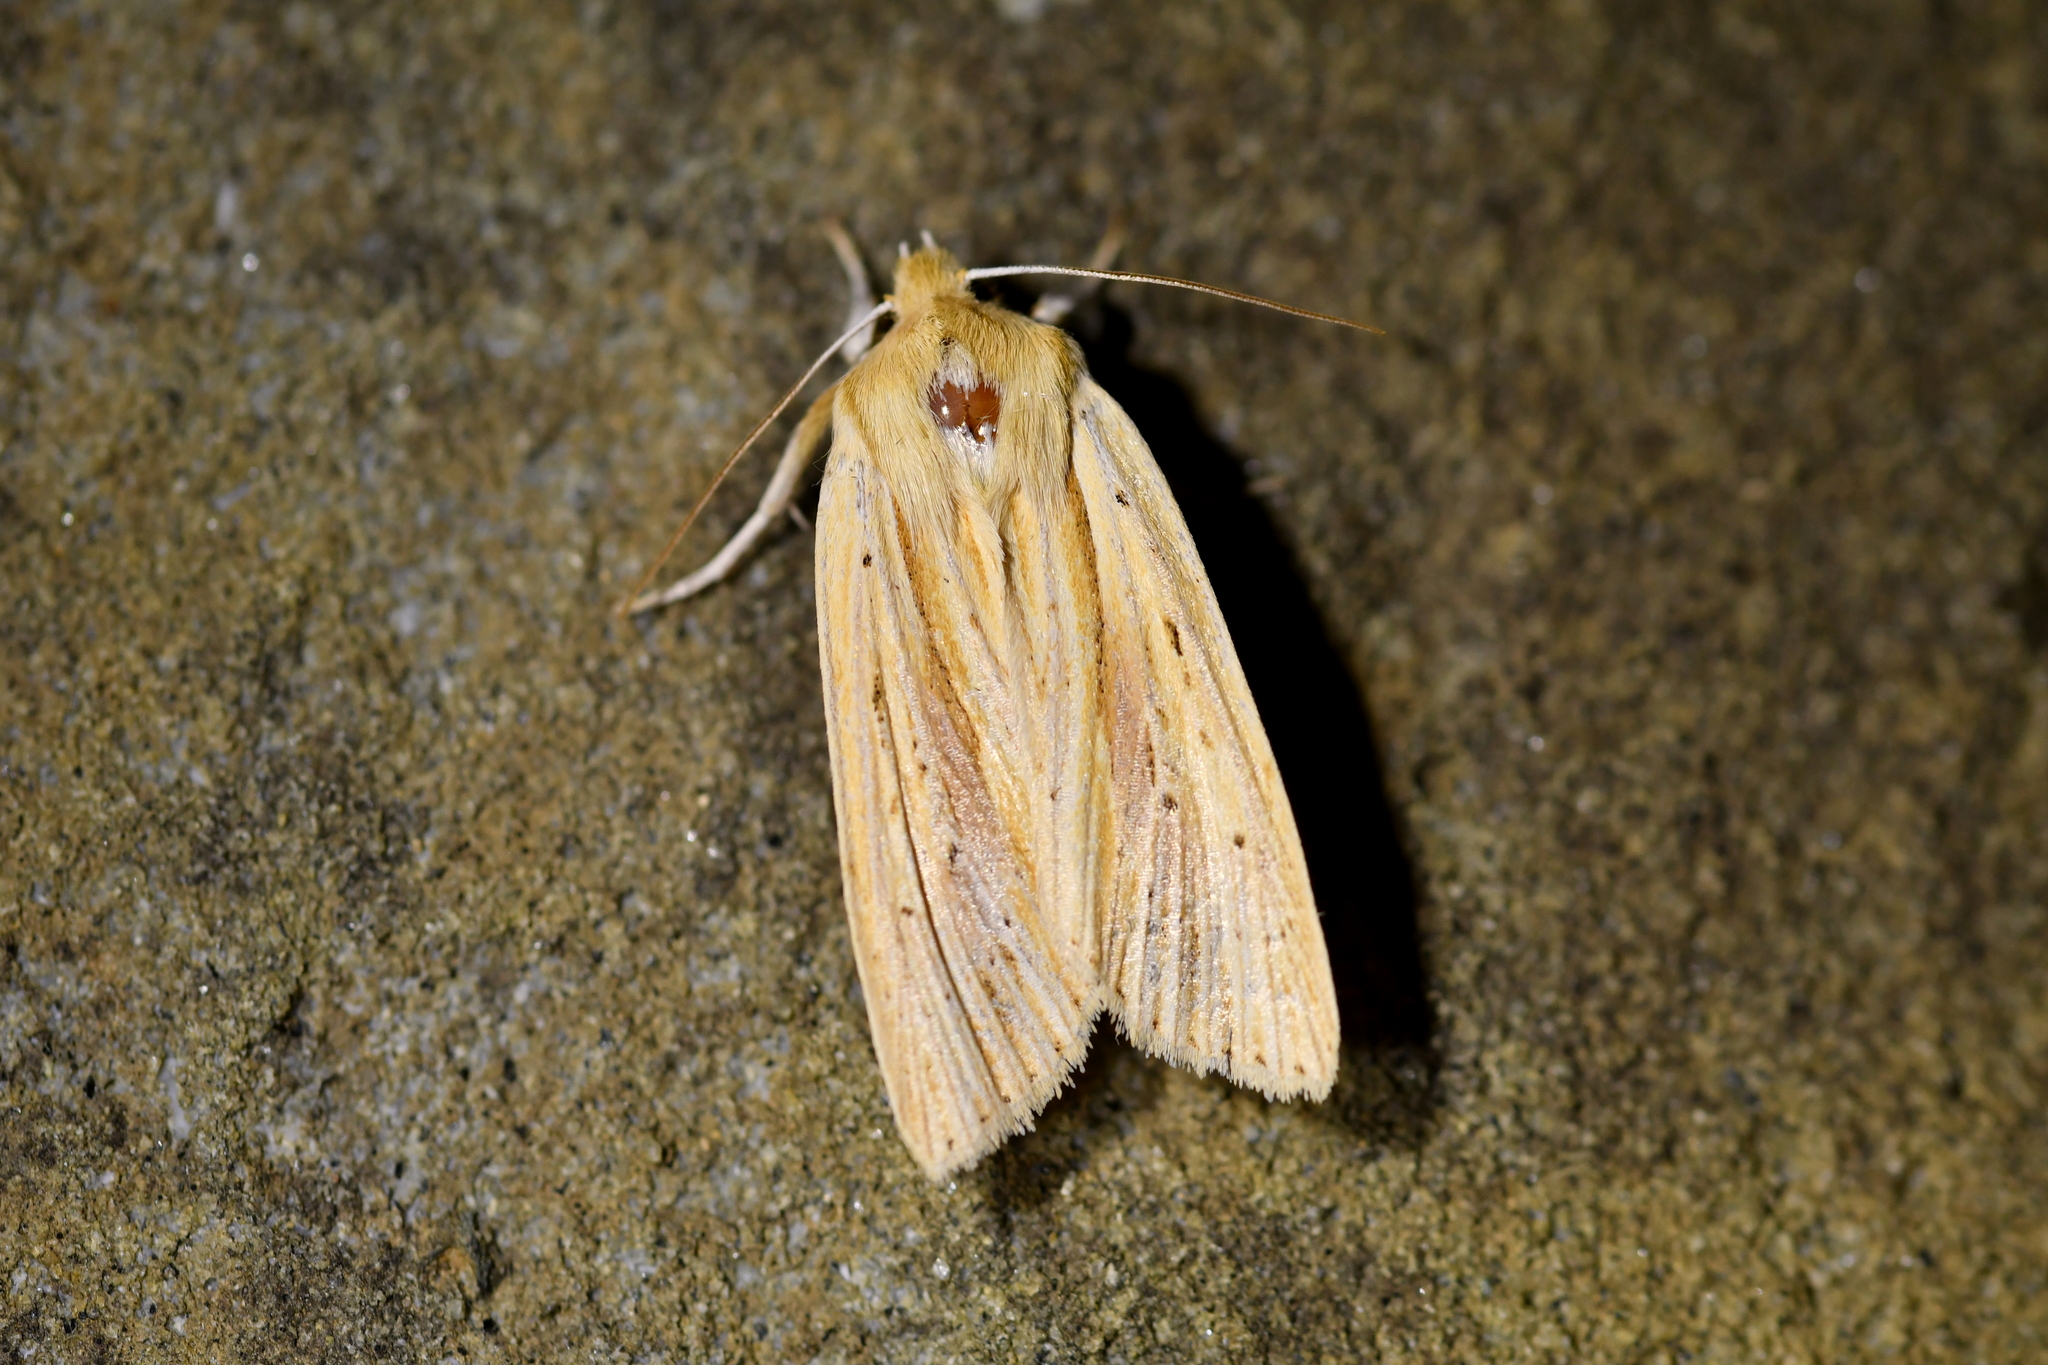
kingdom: Animalia
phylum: Arthropoda
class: Insecta
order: Lepidoptera
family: Noctuidae
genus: Ichneutica
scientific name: Ichneutica semivittata
